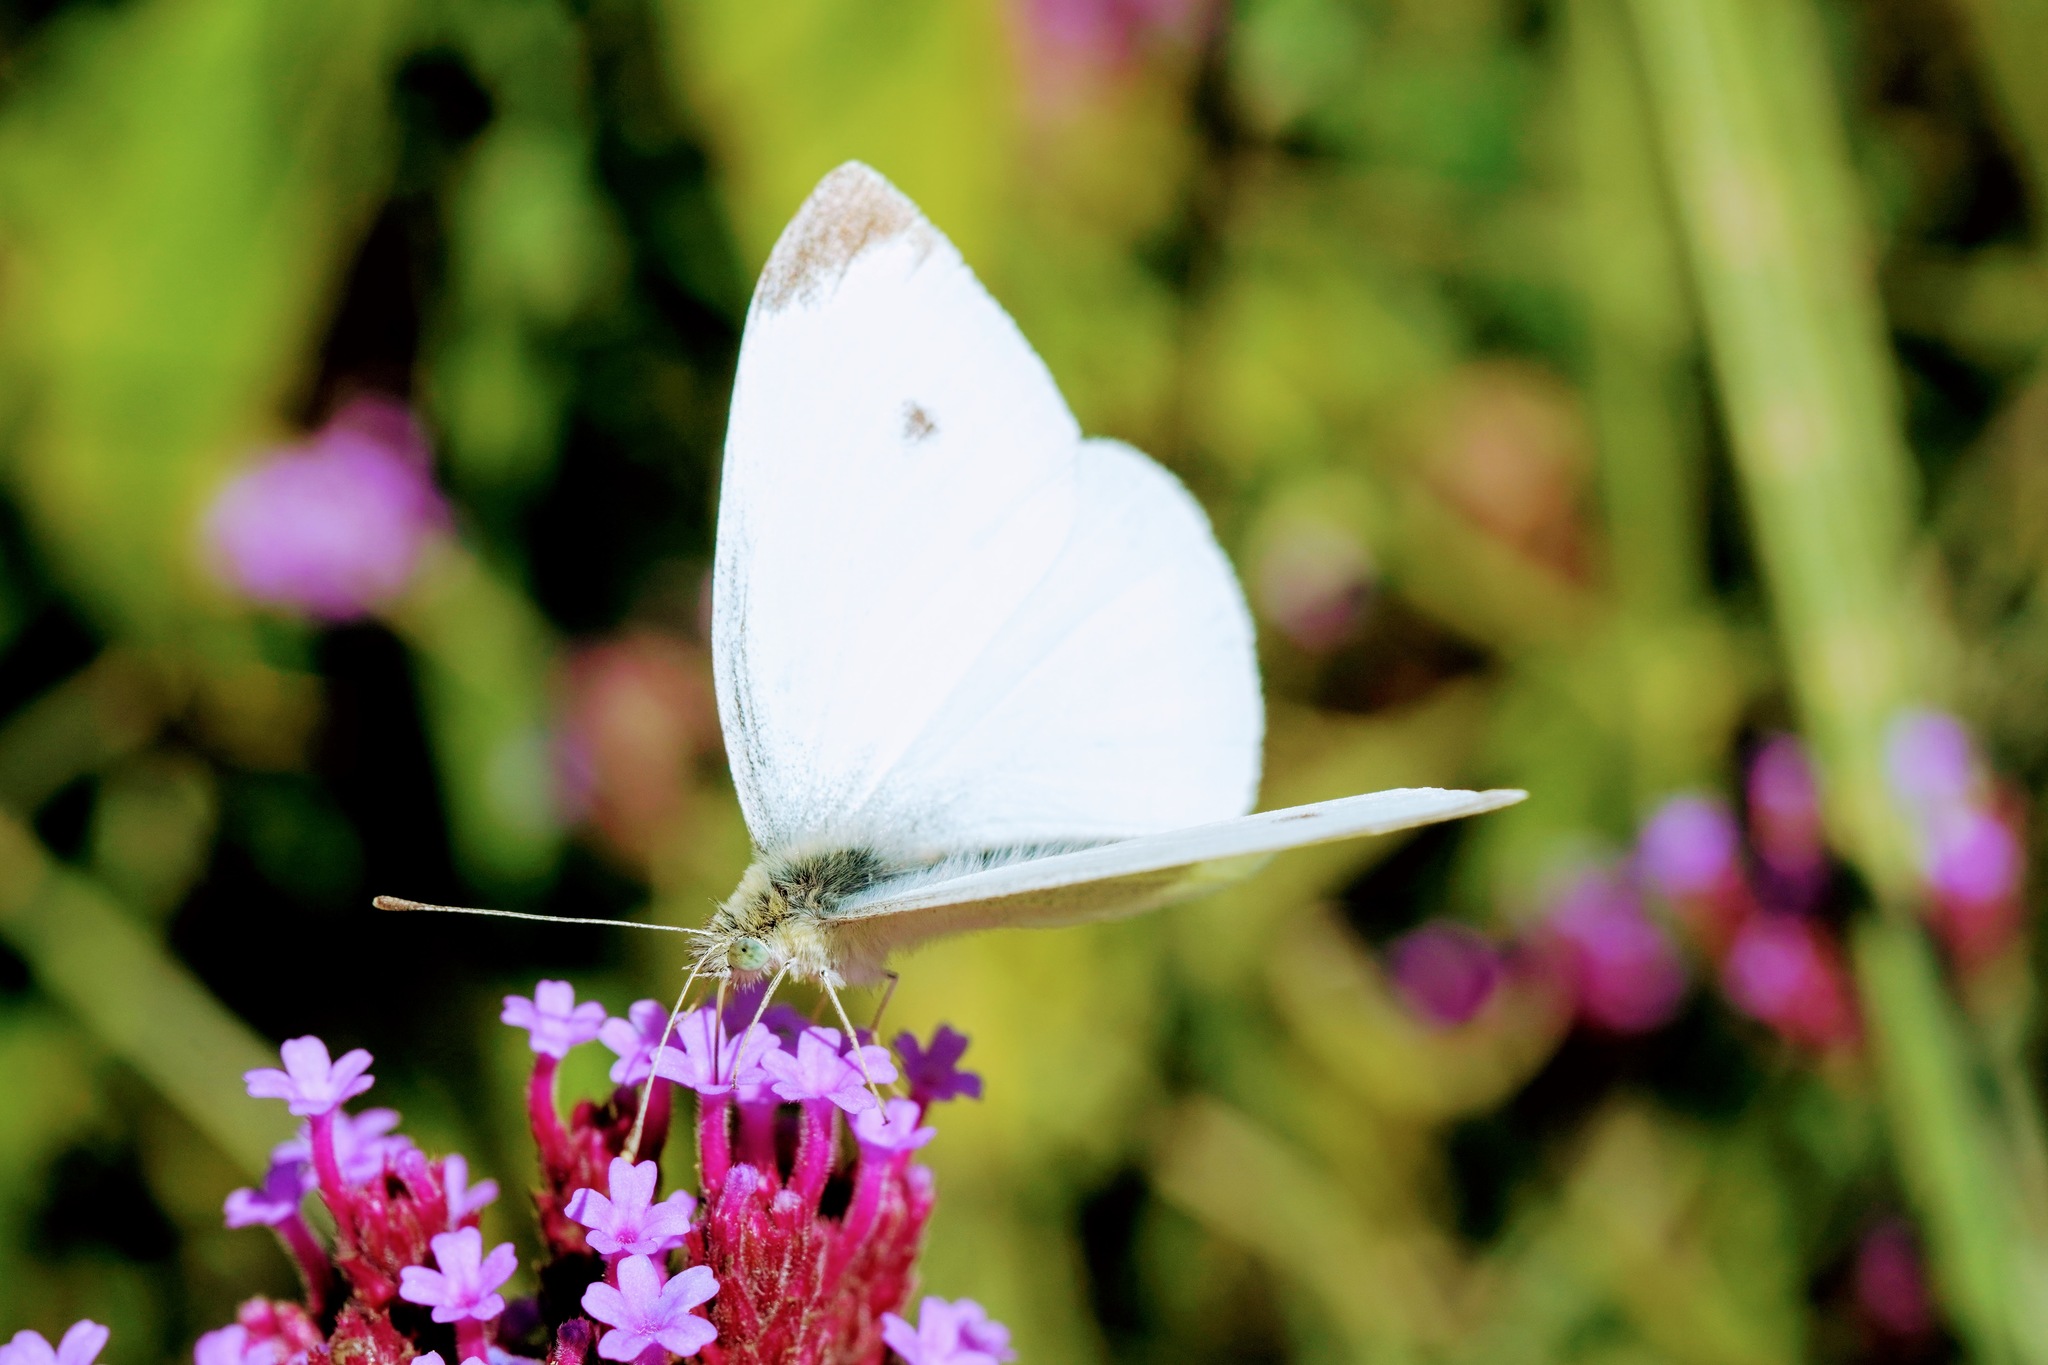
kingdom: Animalia
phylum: Arthropoda
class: Insecta
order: Lepidoptera
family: Pieridae
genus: Pieris
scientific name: Pieris rapae
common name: Small white
